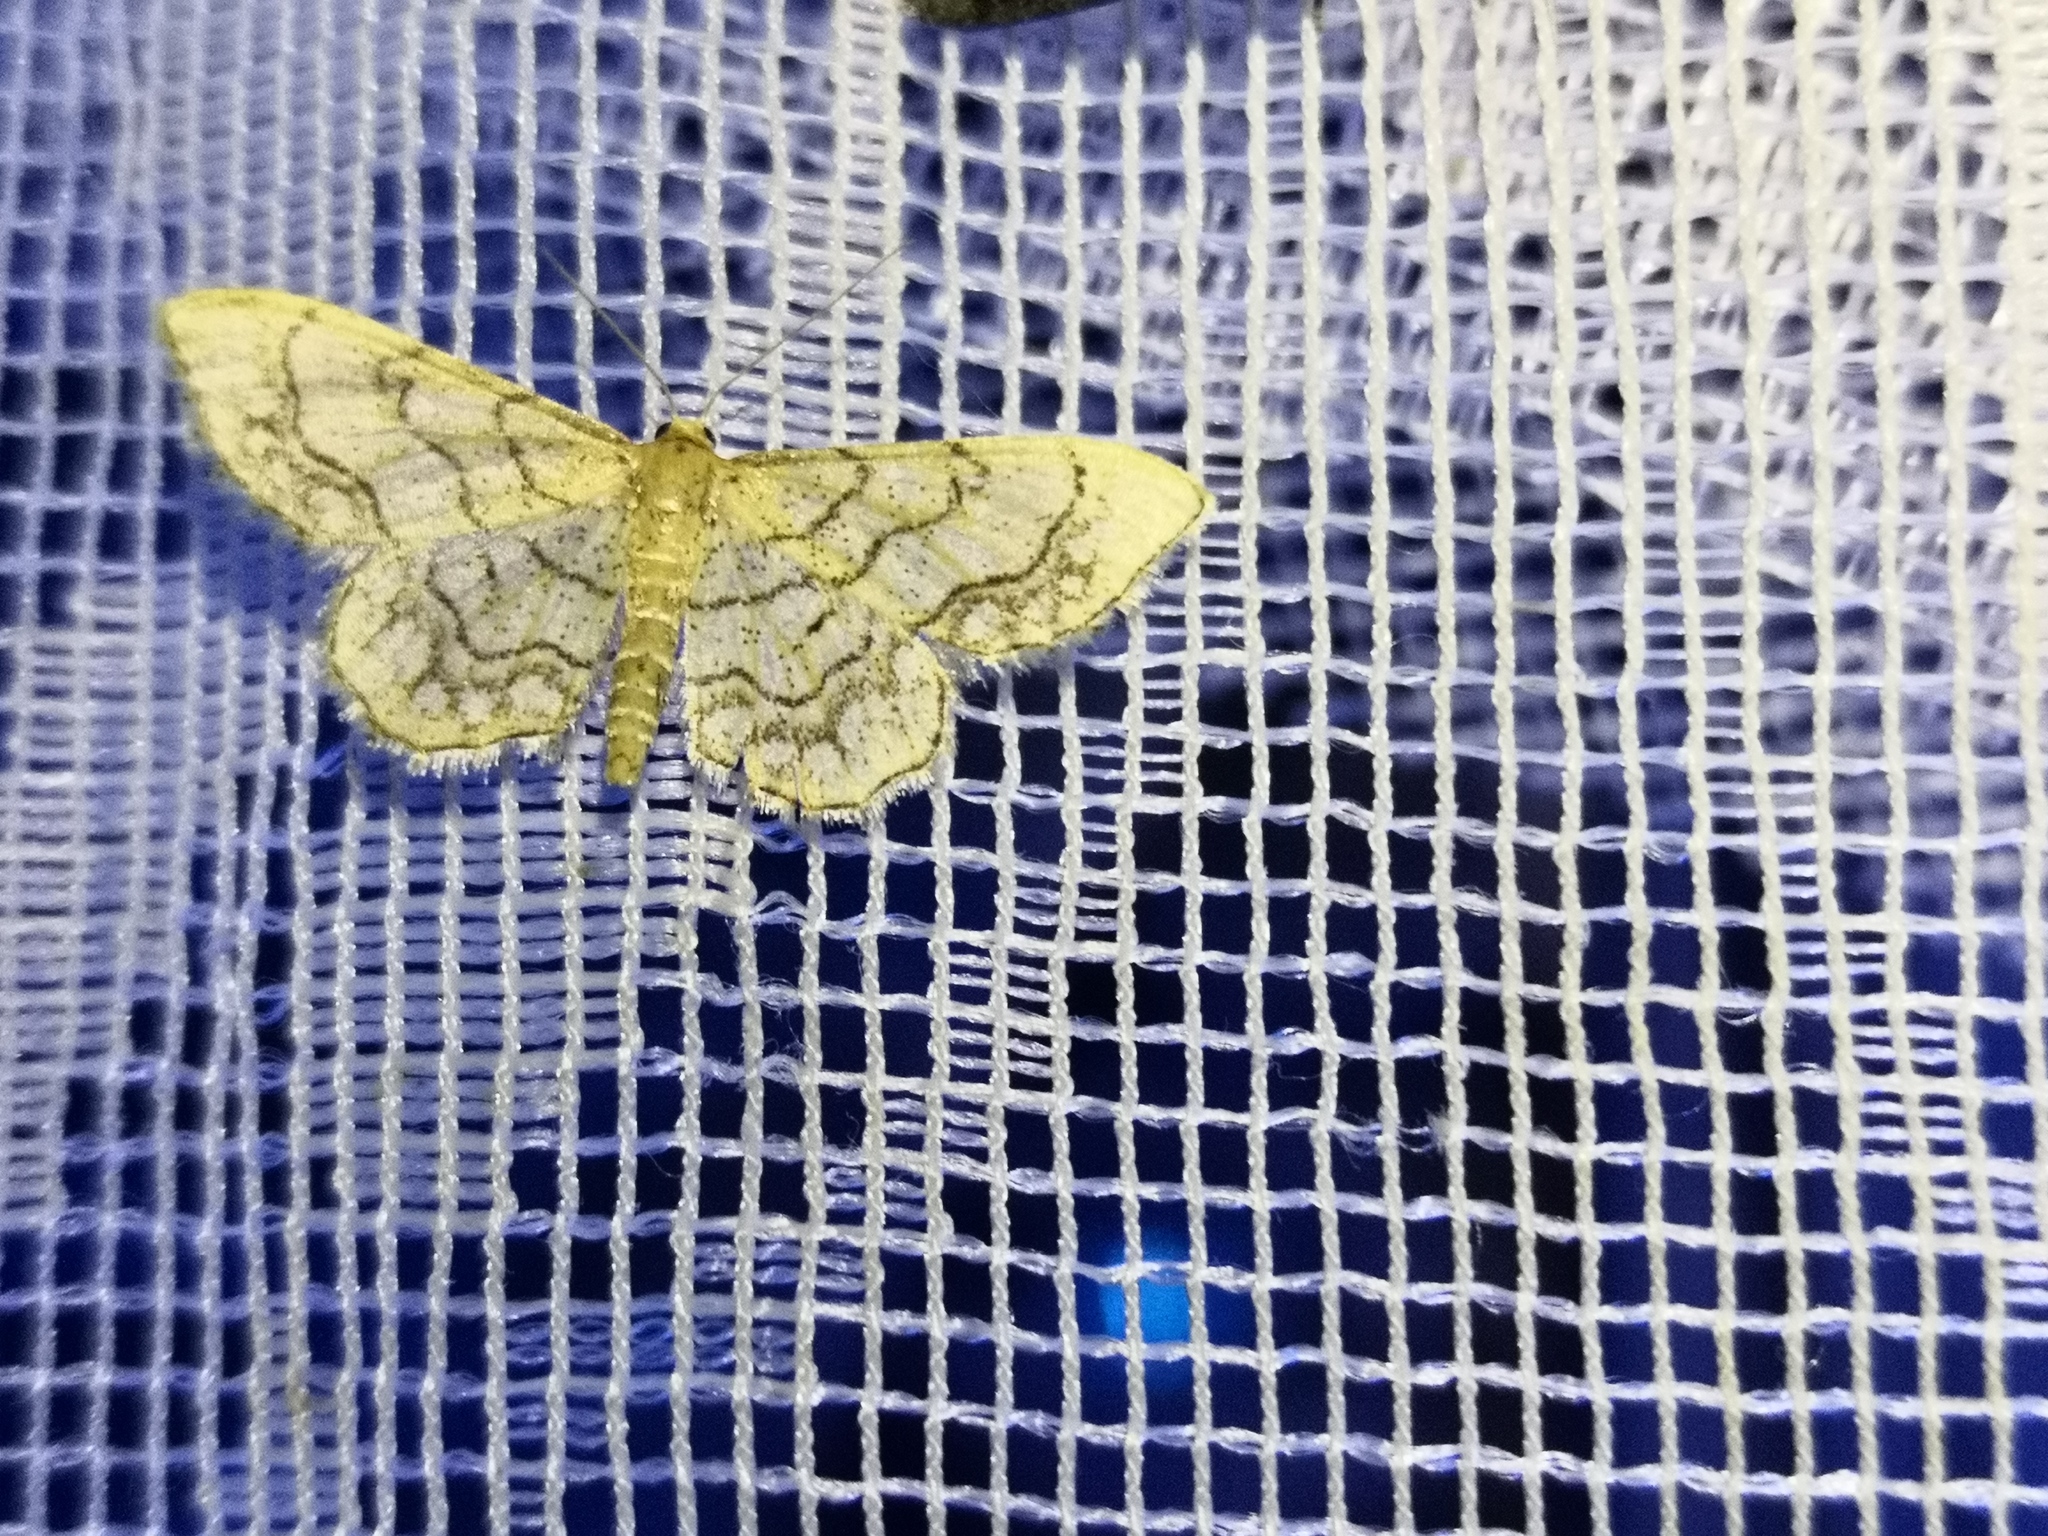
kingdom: Animalia
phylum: Arthropoda
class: Insecta
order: Lepidoptera
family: Geometridae
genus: Idaea
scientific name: Idaea moniliata
